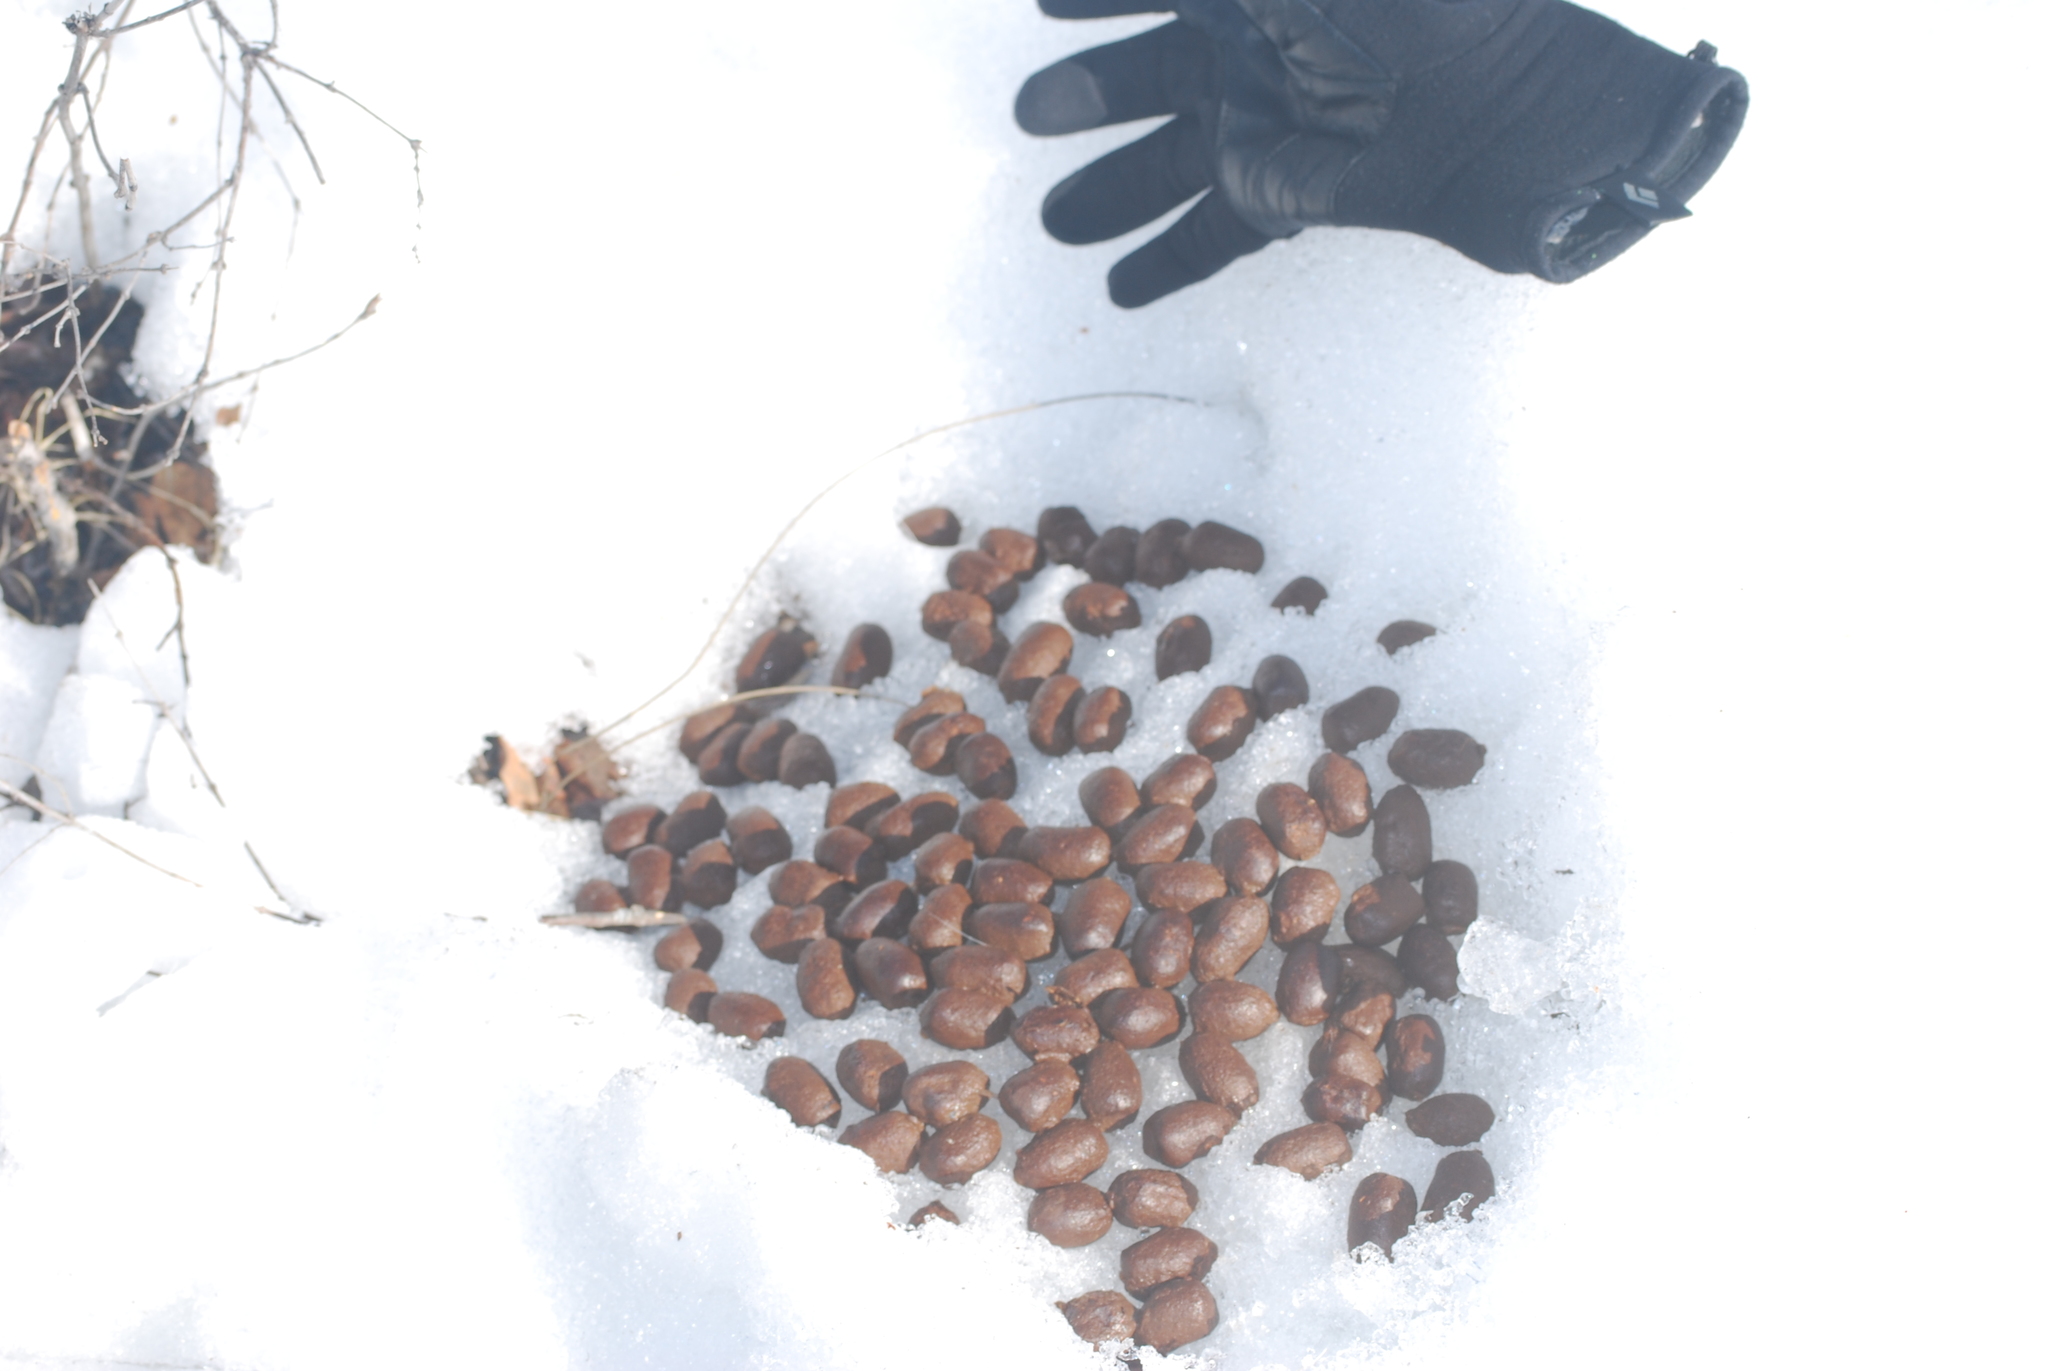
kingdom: Animalia
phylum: Chordata
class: Mammalia
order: Artiodactyla
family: Cervidae
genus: Alces
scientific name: Alces alces
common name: Moose
